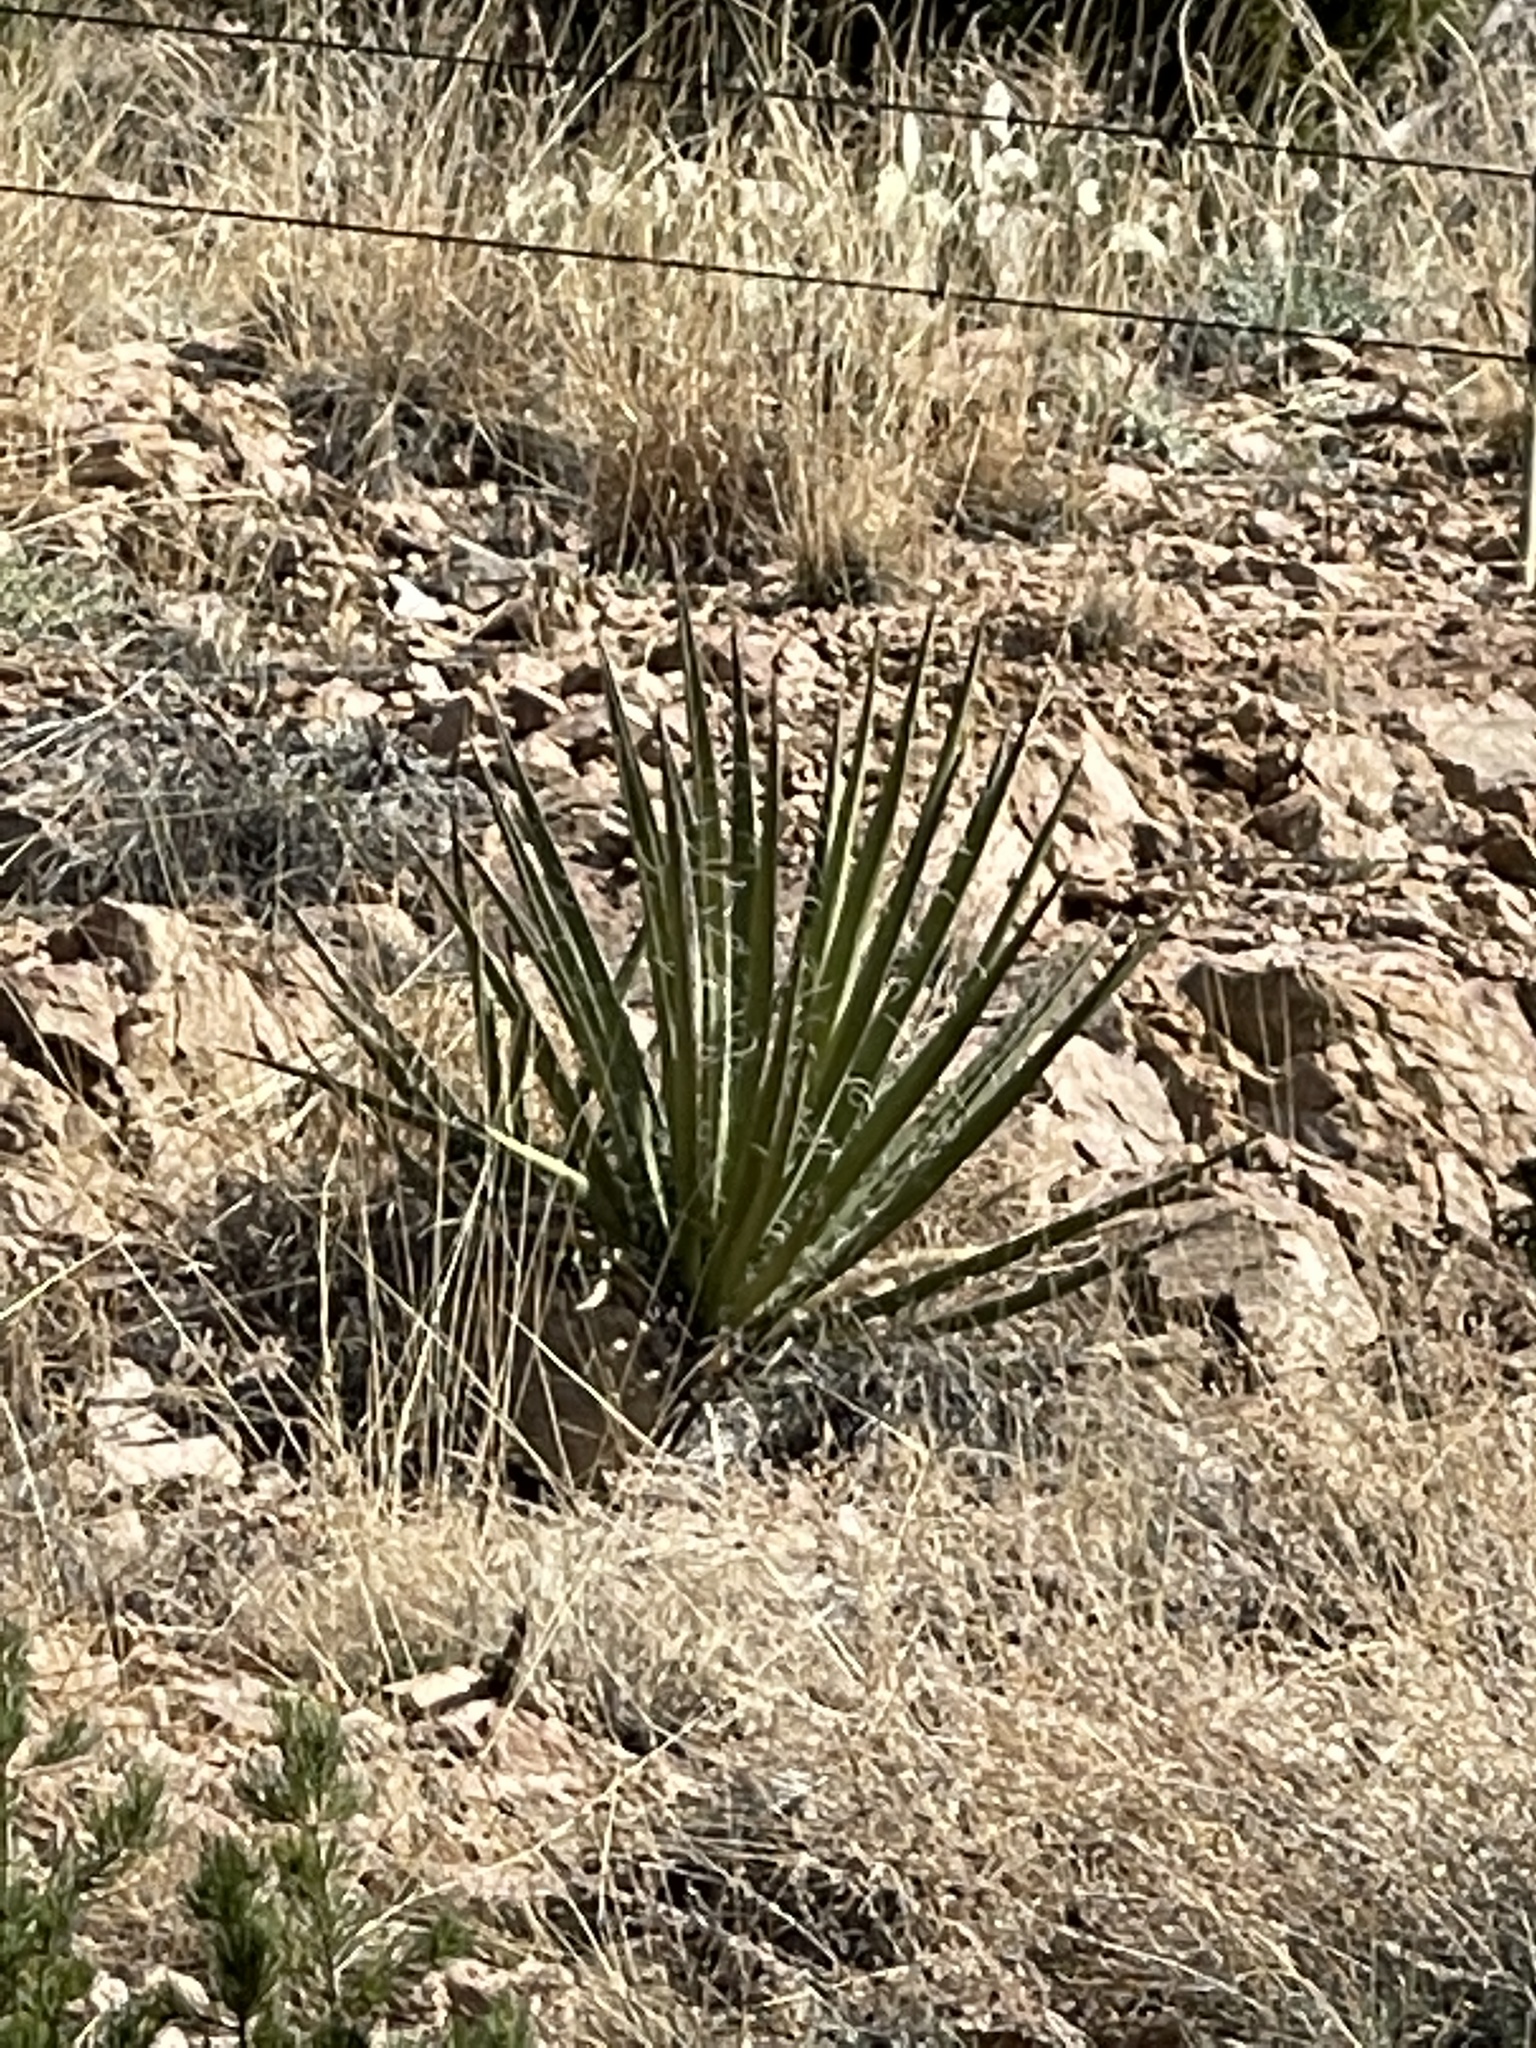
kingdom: Plantae
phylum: Tracheophyta
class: Liliopsida
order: Asparagales
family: Asparagaceae
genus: Yucca
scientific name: Yucca baccata
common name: Banana yucca
